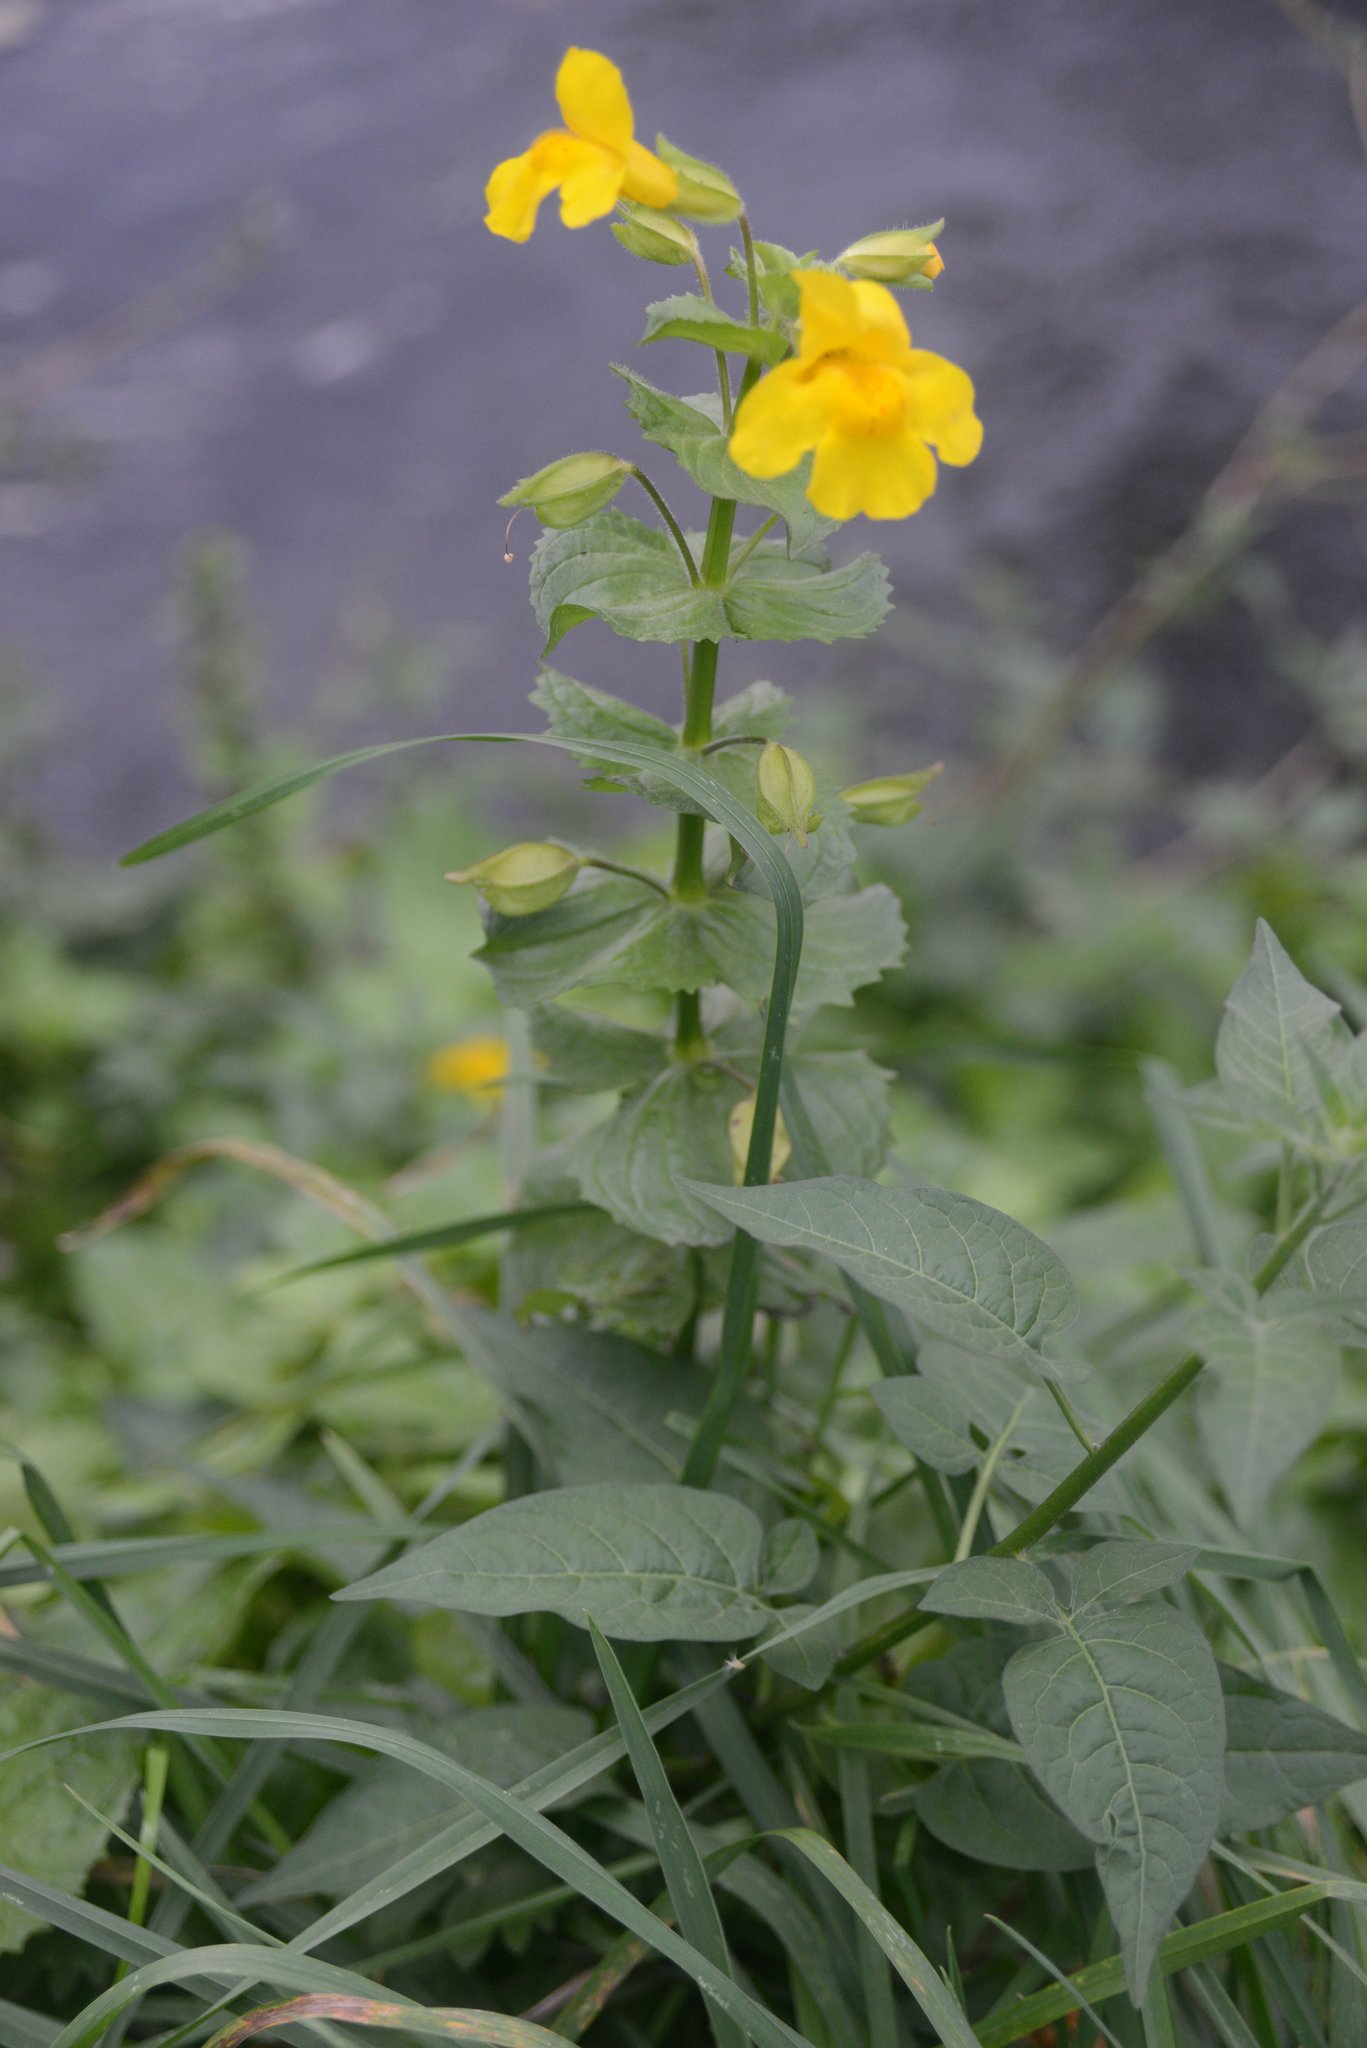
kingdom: Plantae
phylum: Tracheophyta
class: Magnoliopsida
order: Lamiales
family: Phrymaceae
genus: Erythranthe
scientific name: Erythranthe guttata
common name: Monkeyflower
